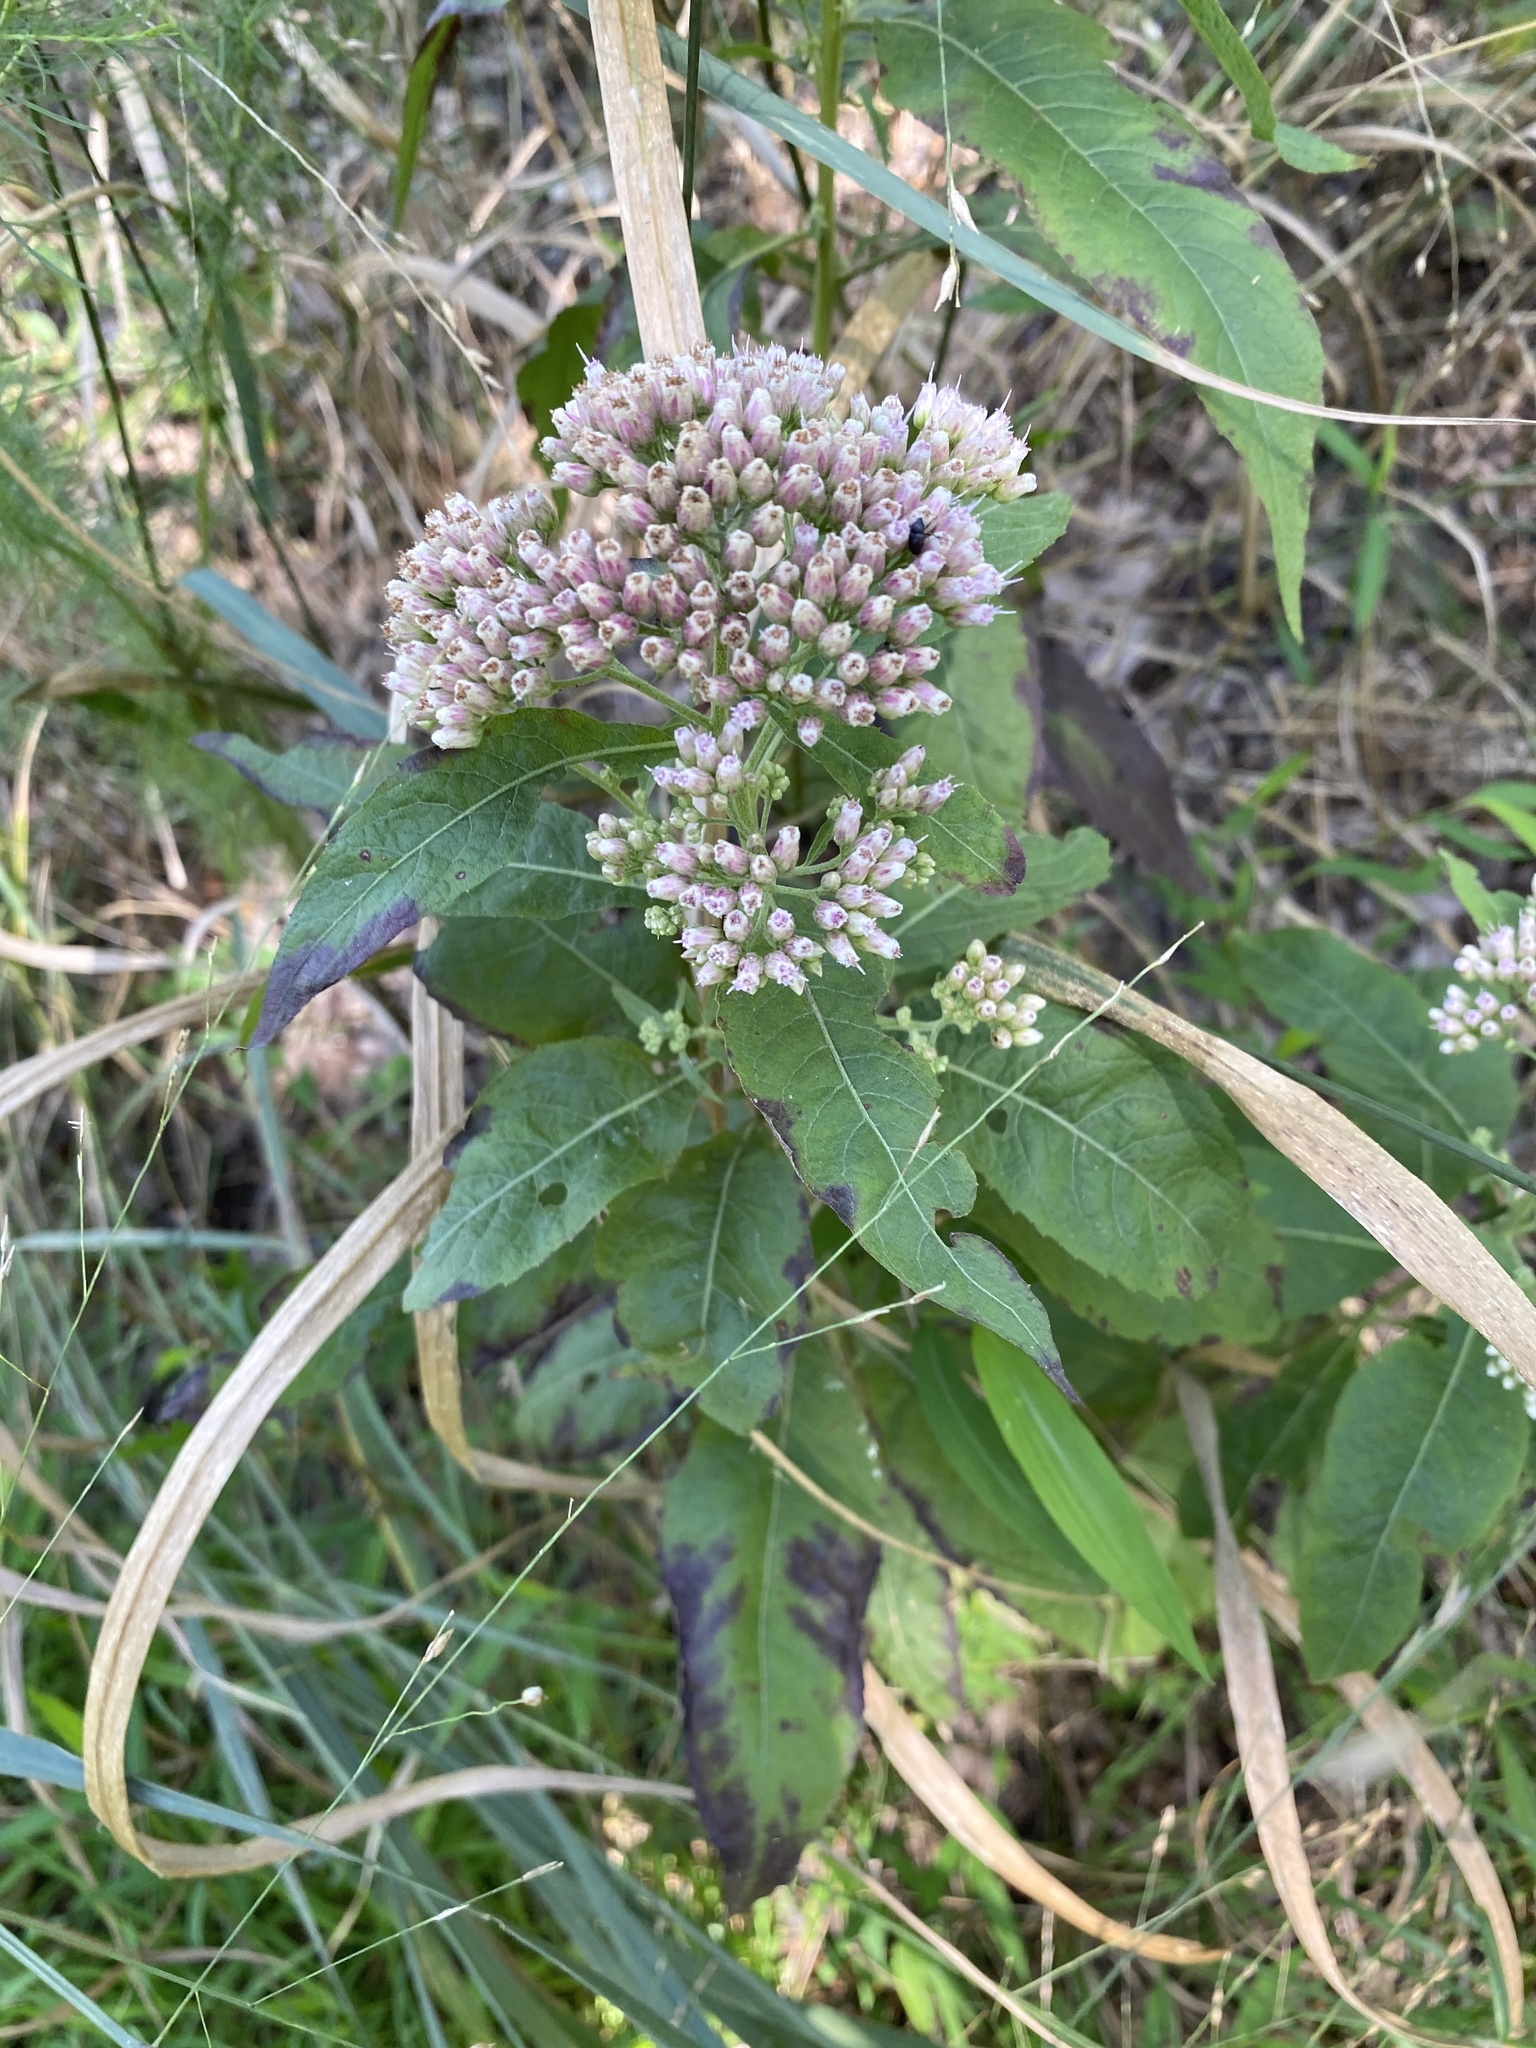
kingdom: Plantae
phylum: Tracheophyta
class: Magnoliopsida
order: Asterales
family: Asteraceae
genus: Pluchea
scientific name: Pluchea camphorata
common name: Camphor pluchea
